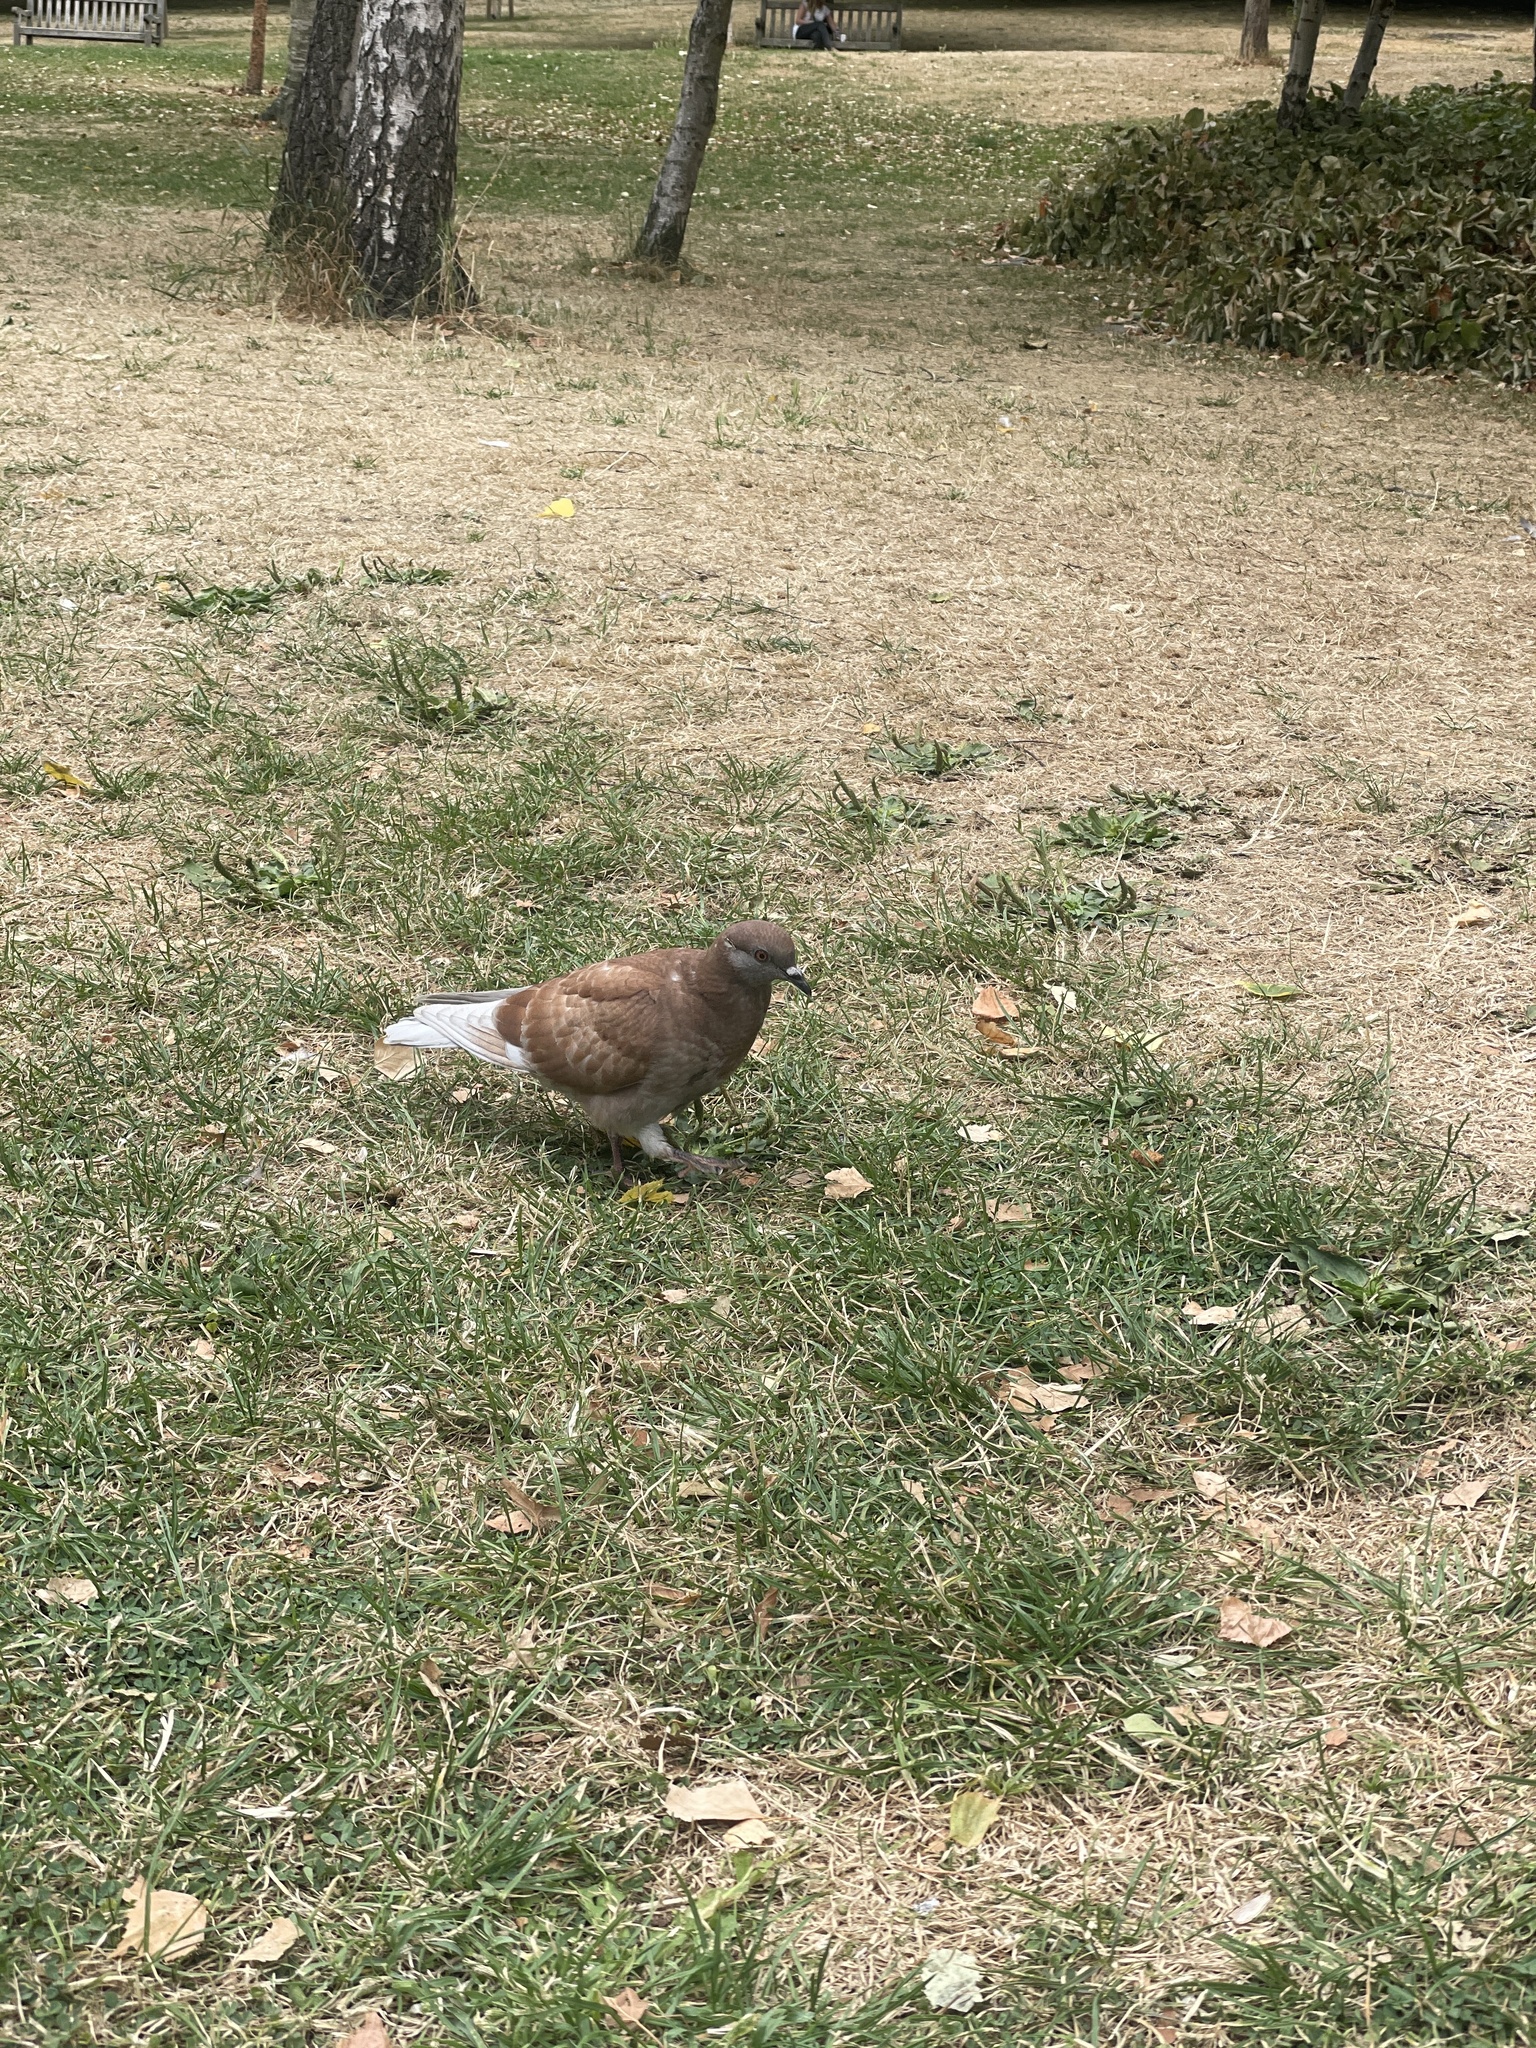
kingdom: Animalia
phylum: Chordata
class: Aves
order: Columbiformes
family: Columbidae
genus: Columba
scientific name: Columba livia
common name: Rock pigeon
